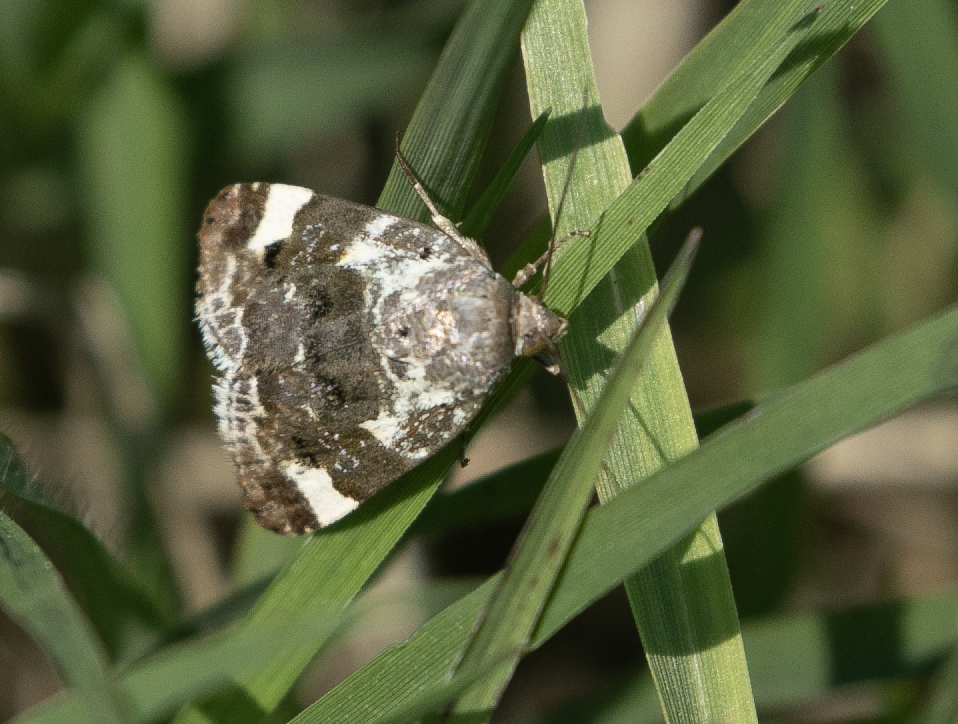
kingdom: Animalia
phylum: Arthropoda
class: Insecta
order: Lepidoptera
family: Noctuidae
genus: Acontia
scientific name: Acontia lucida
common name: Pale shoulder
